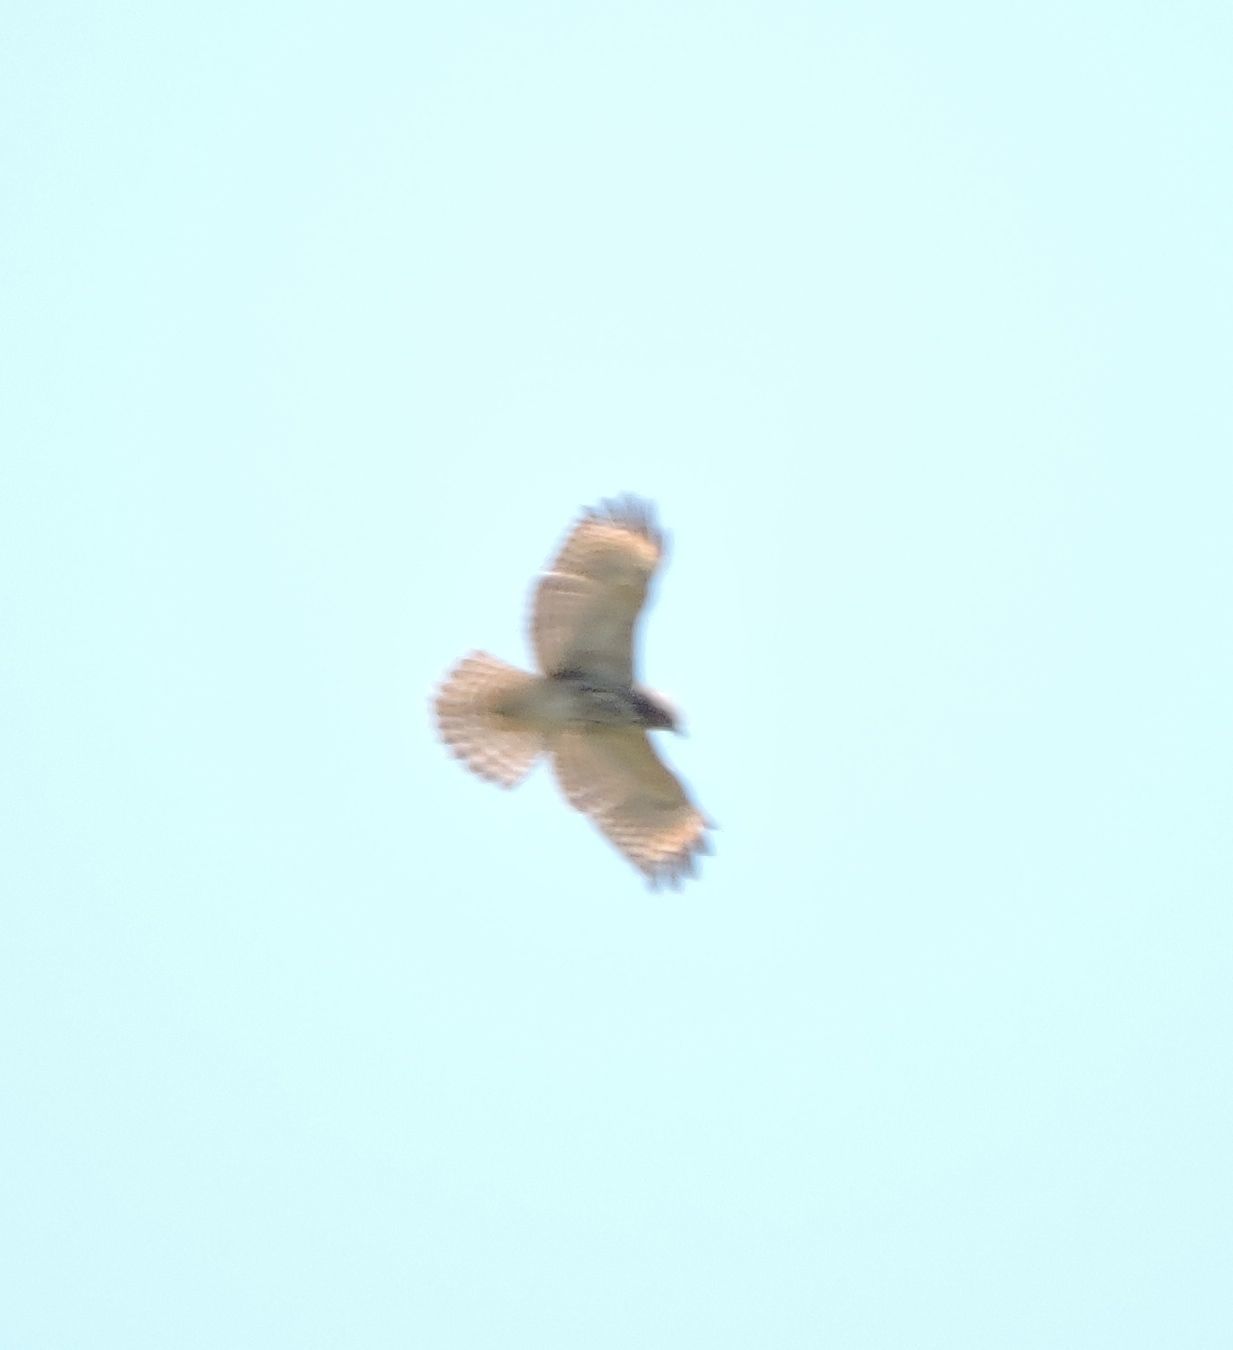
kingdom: Animalia
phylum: Chordata
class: Aves
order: Accipitriformes
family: Accipitridae
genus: Buteo
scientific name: Buteo lineatus
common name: Red-shouldered hawk
